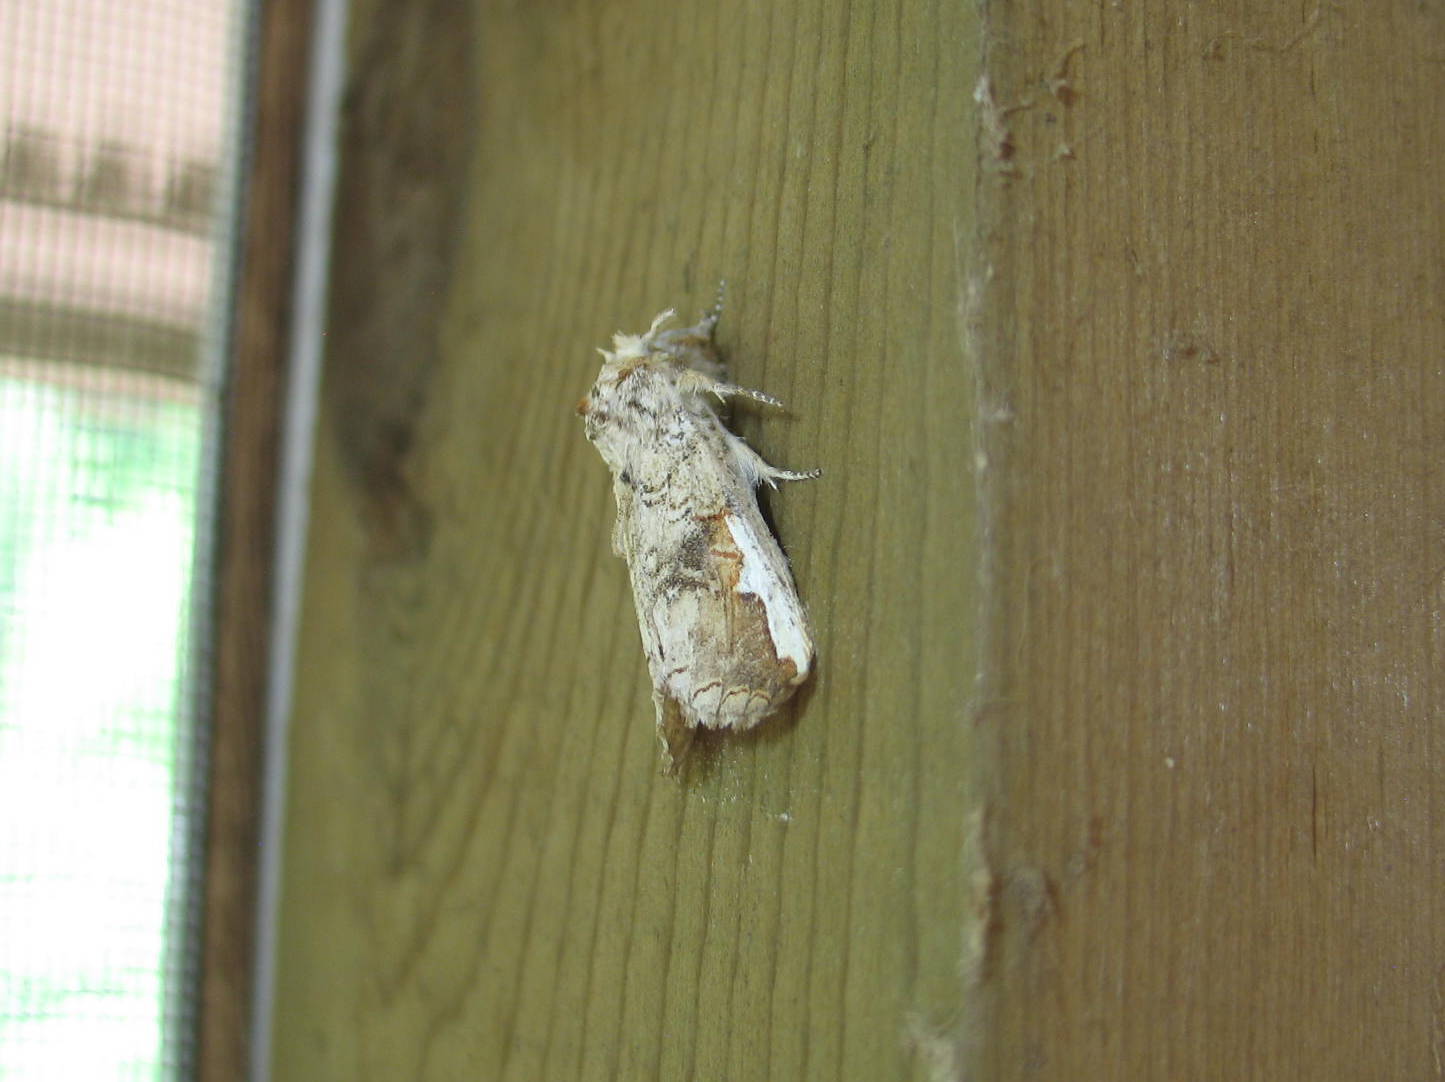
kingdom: Animalia
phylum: Arthropoda
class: Insecta
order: Lepidoptera
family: Notodontidae
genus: Symmerista
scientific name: Symmerista albifrons
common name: White-headed prominent
